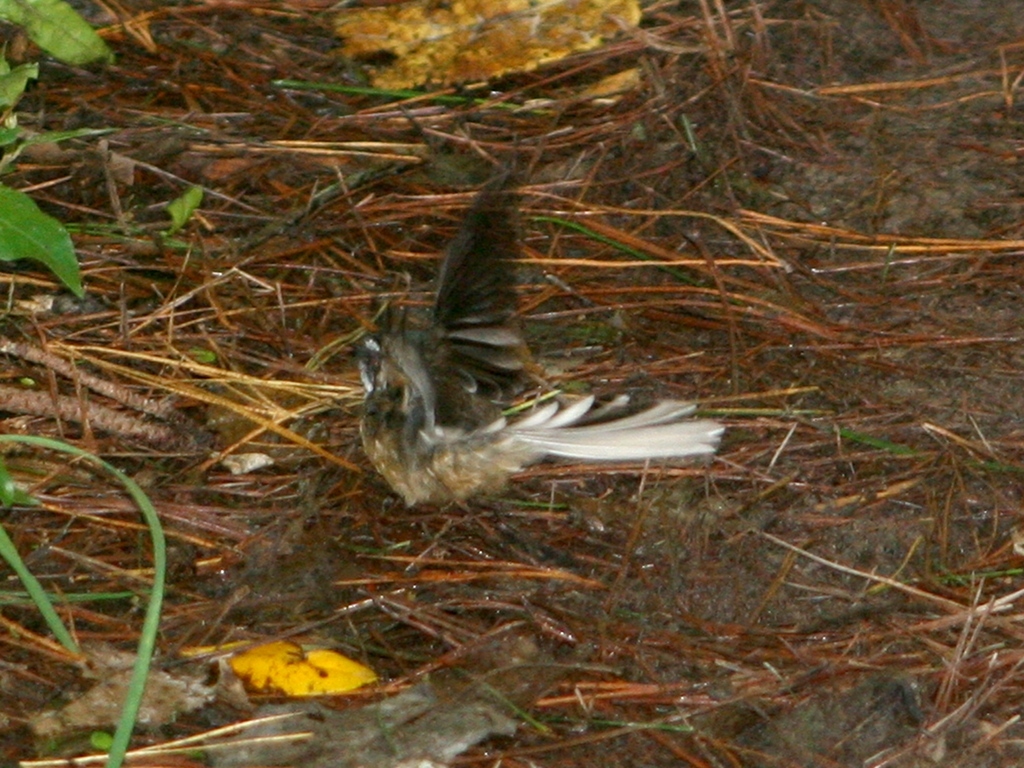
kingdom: Animalia
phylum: Chordata
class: Aves
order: Passeriformes
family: Rhipiduridae
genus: Rhipidura
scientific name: Rhipidura fuliginosa
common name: New zealand fantail
